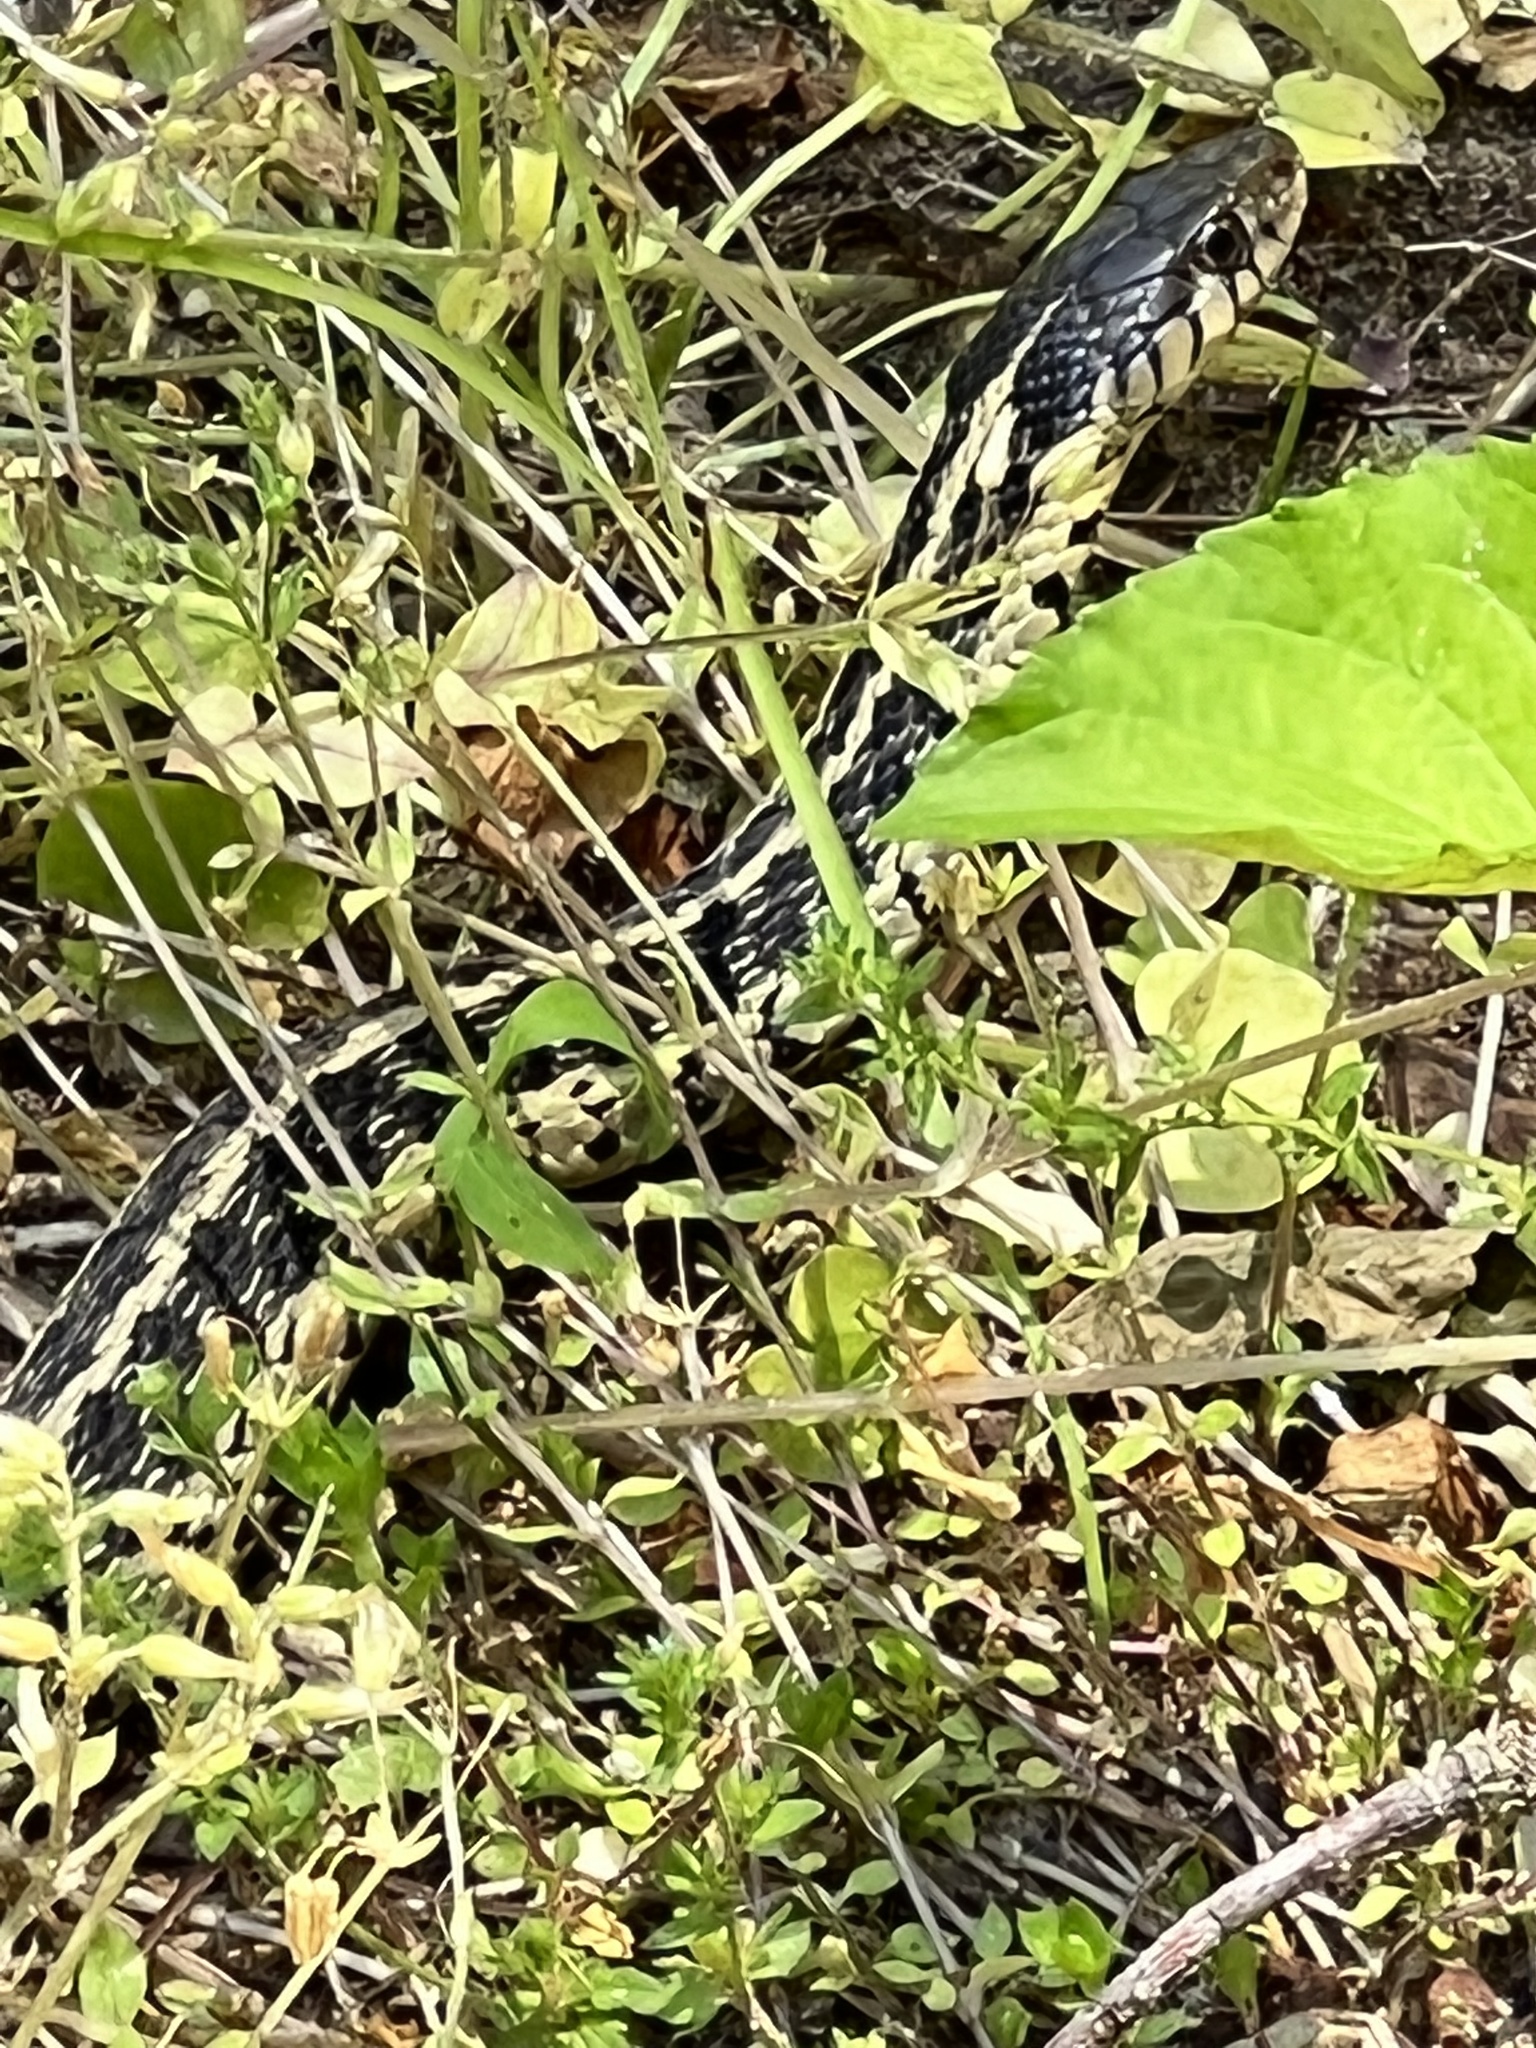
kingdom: Animalia
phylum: Chordata
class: Squamata
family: Colubridae
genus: Thamnophis
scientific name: Thamnophis sirtalis
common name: Common garter snake
